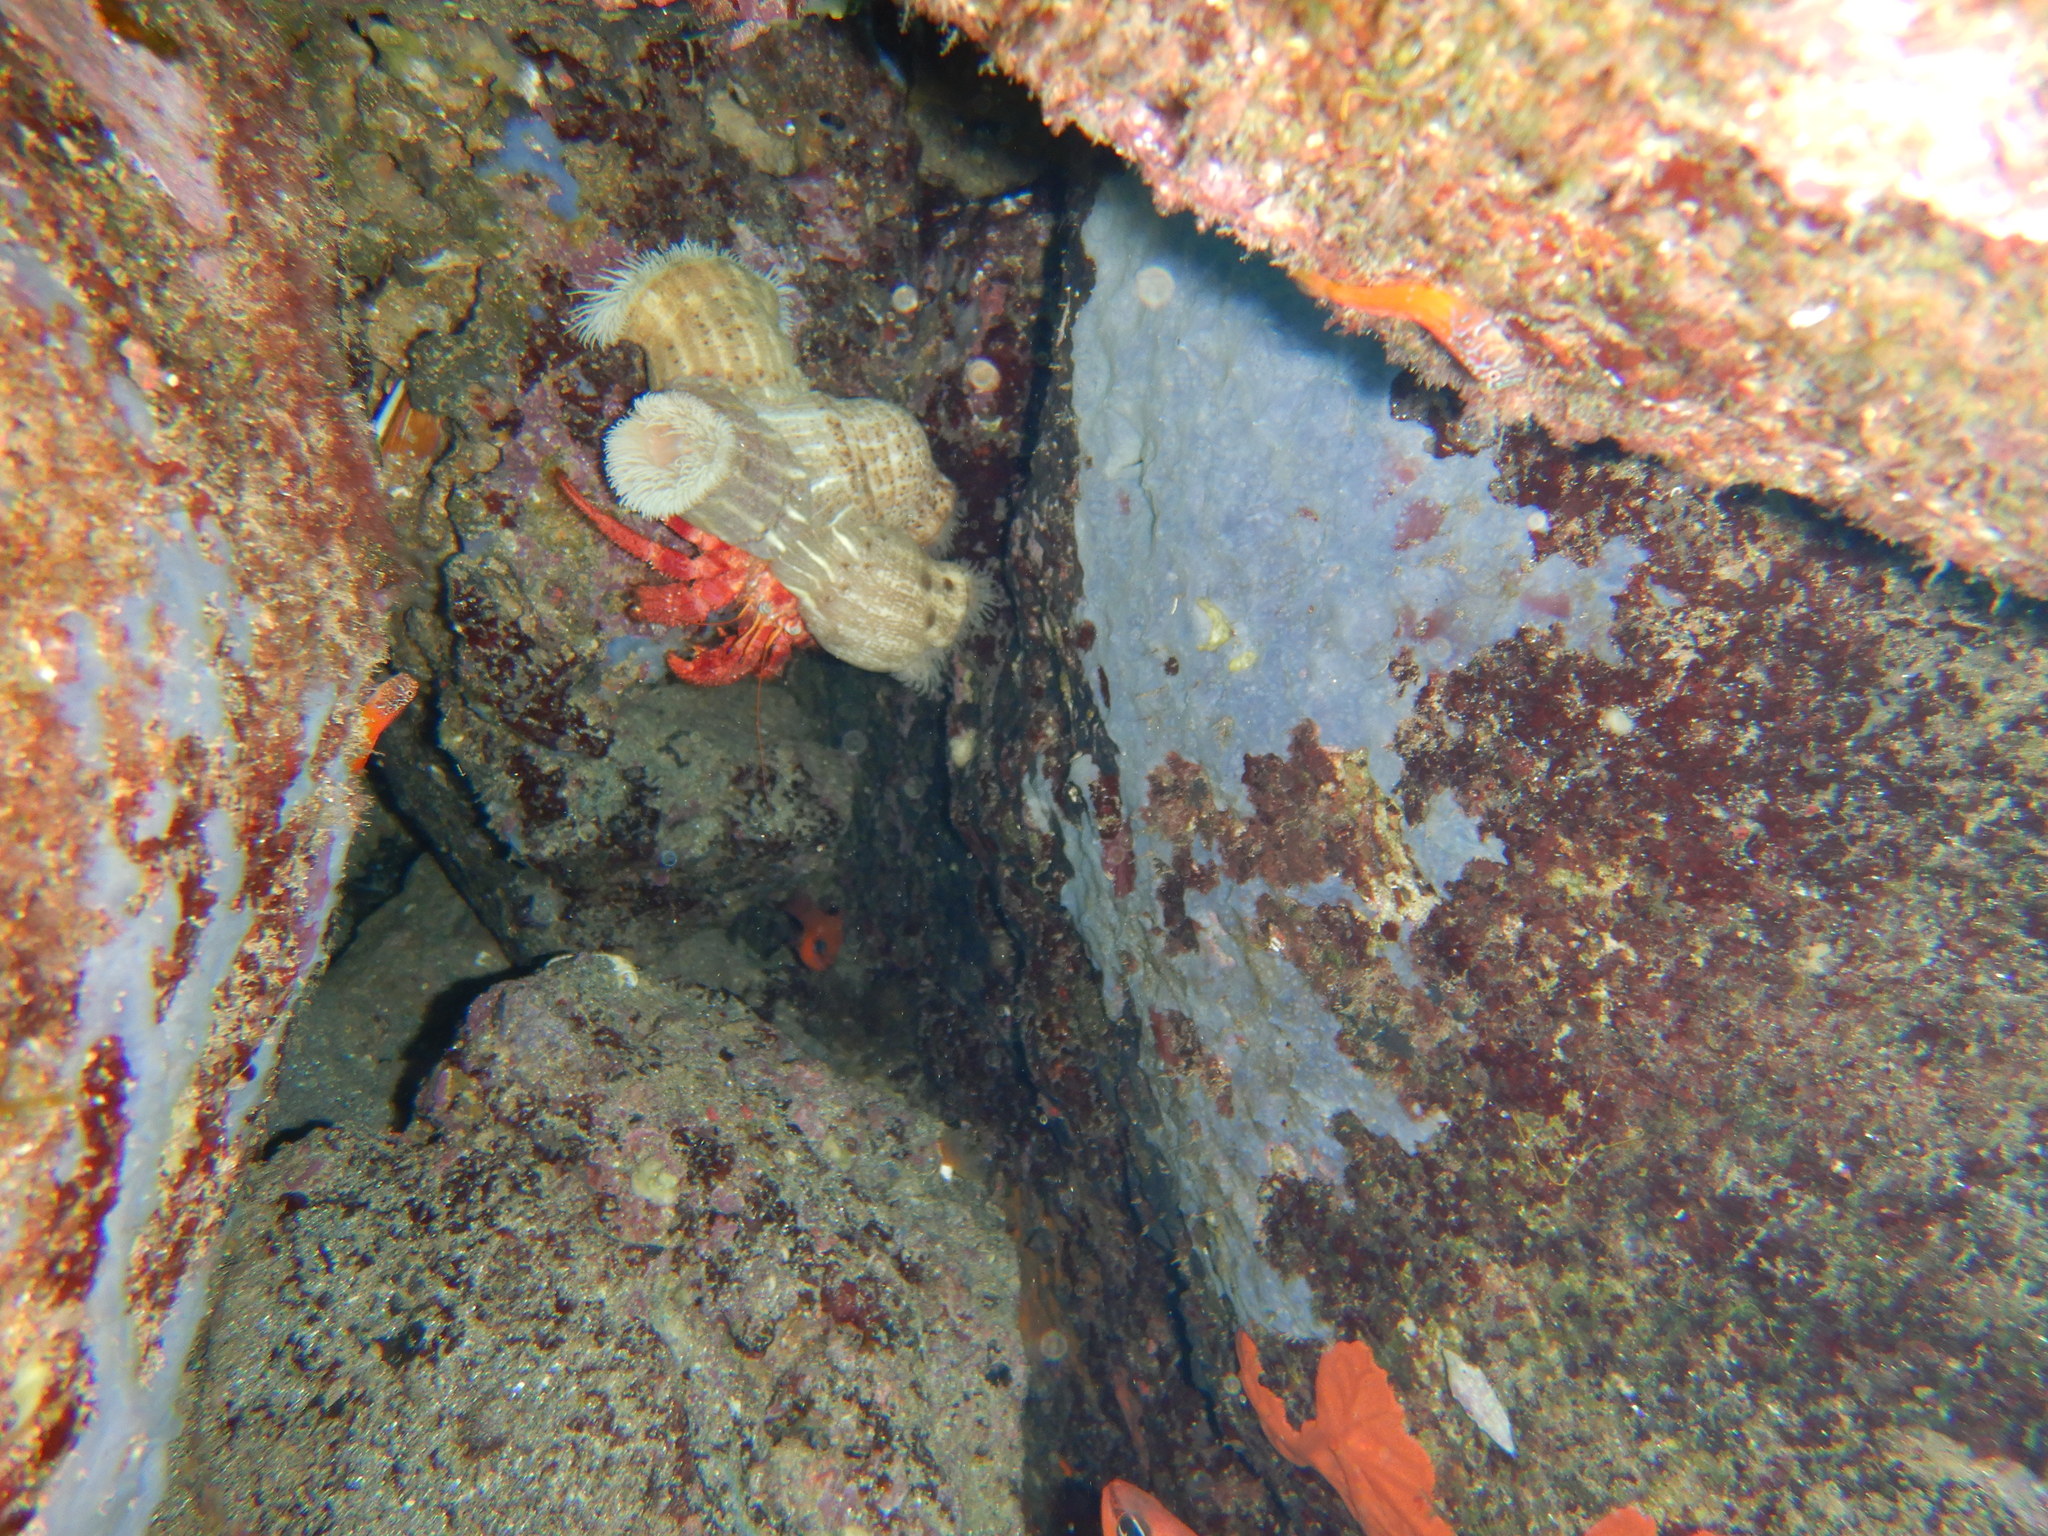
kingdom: Animalia
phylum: Arthropoda
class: Malacostraca
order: Decapoda
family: Diogenidae
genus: Dardanus
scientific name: Dardanus calidus
